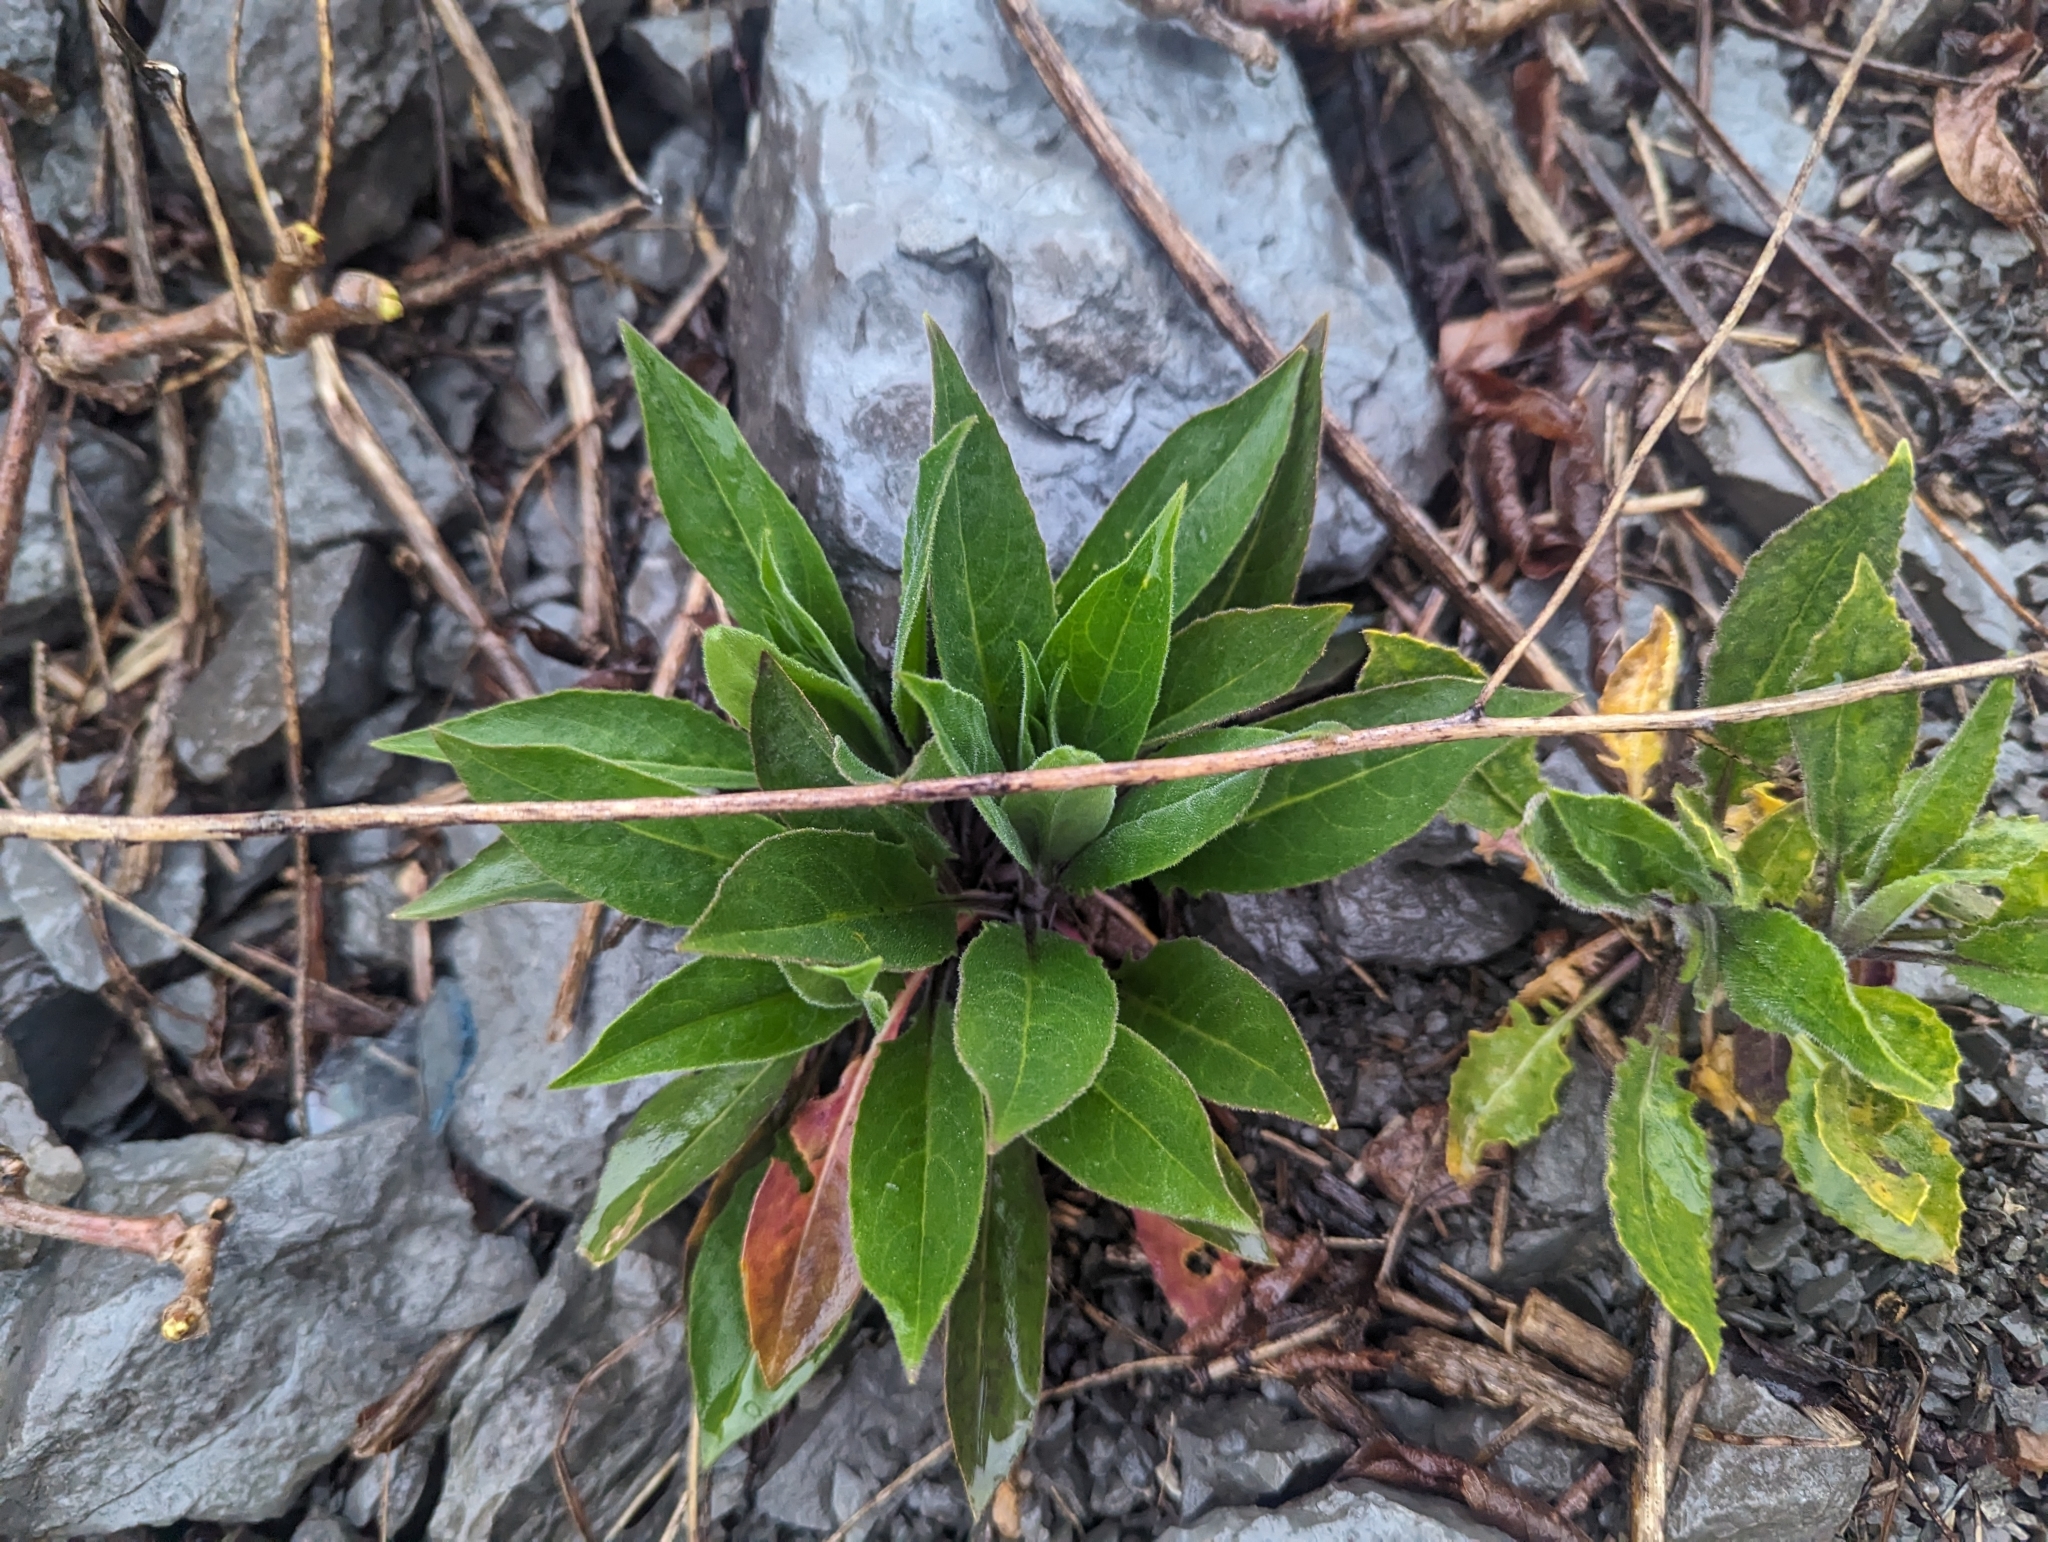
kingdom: Plantae
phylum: Tracheophyta
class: Magnoliopsida
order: Brassicales
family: Brassicaceae
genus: Hesperis
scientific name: Hesperis matronalis
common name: Dame's-violet
